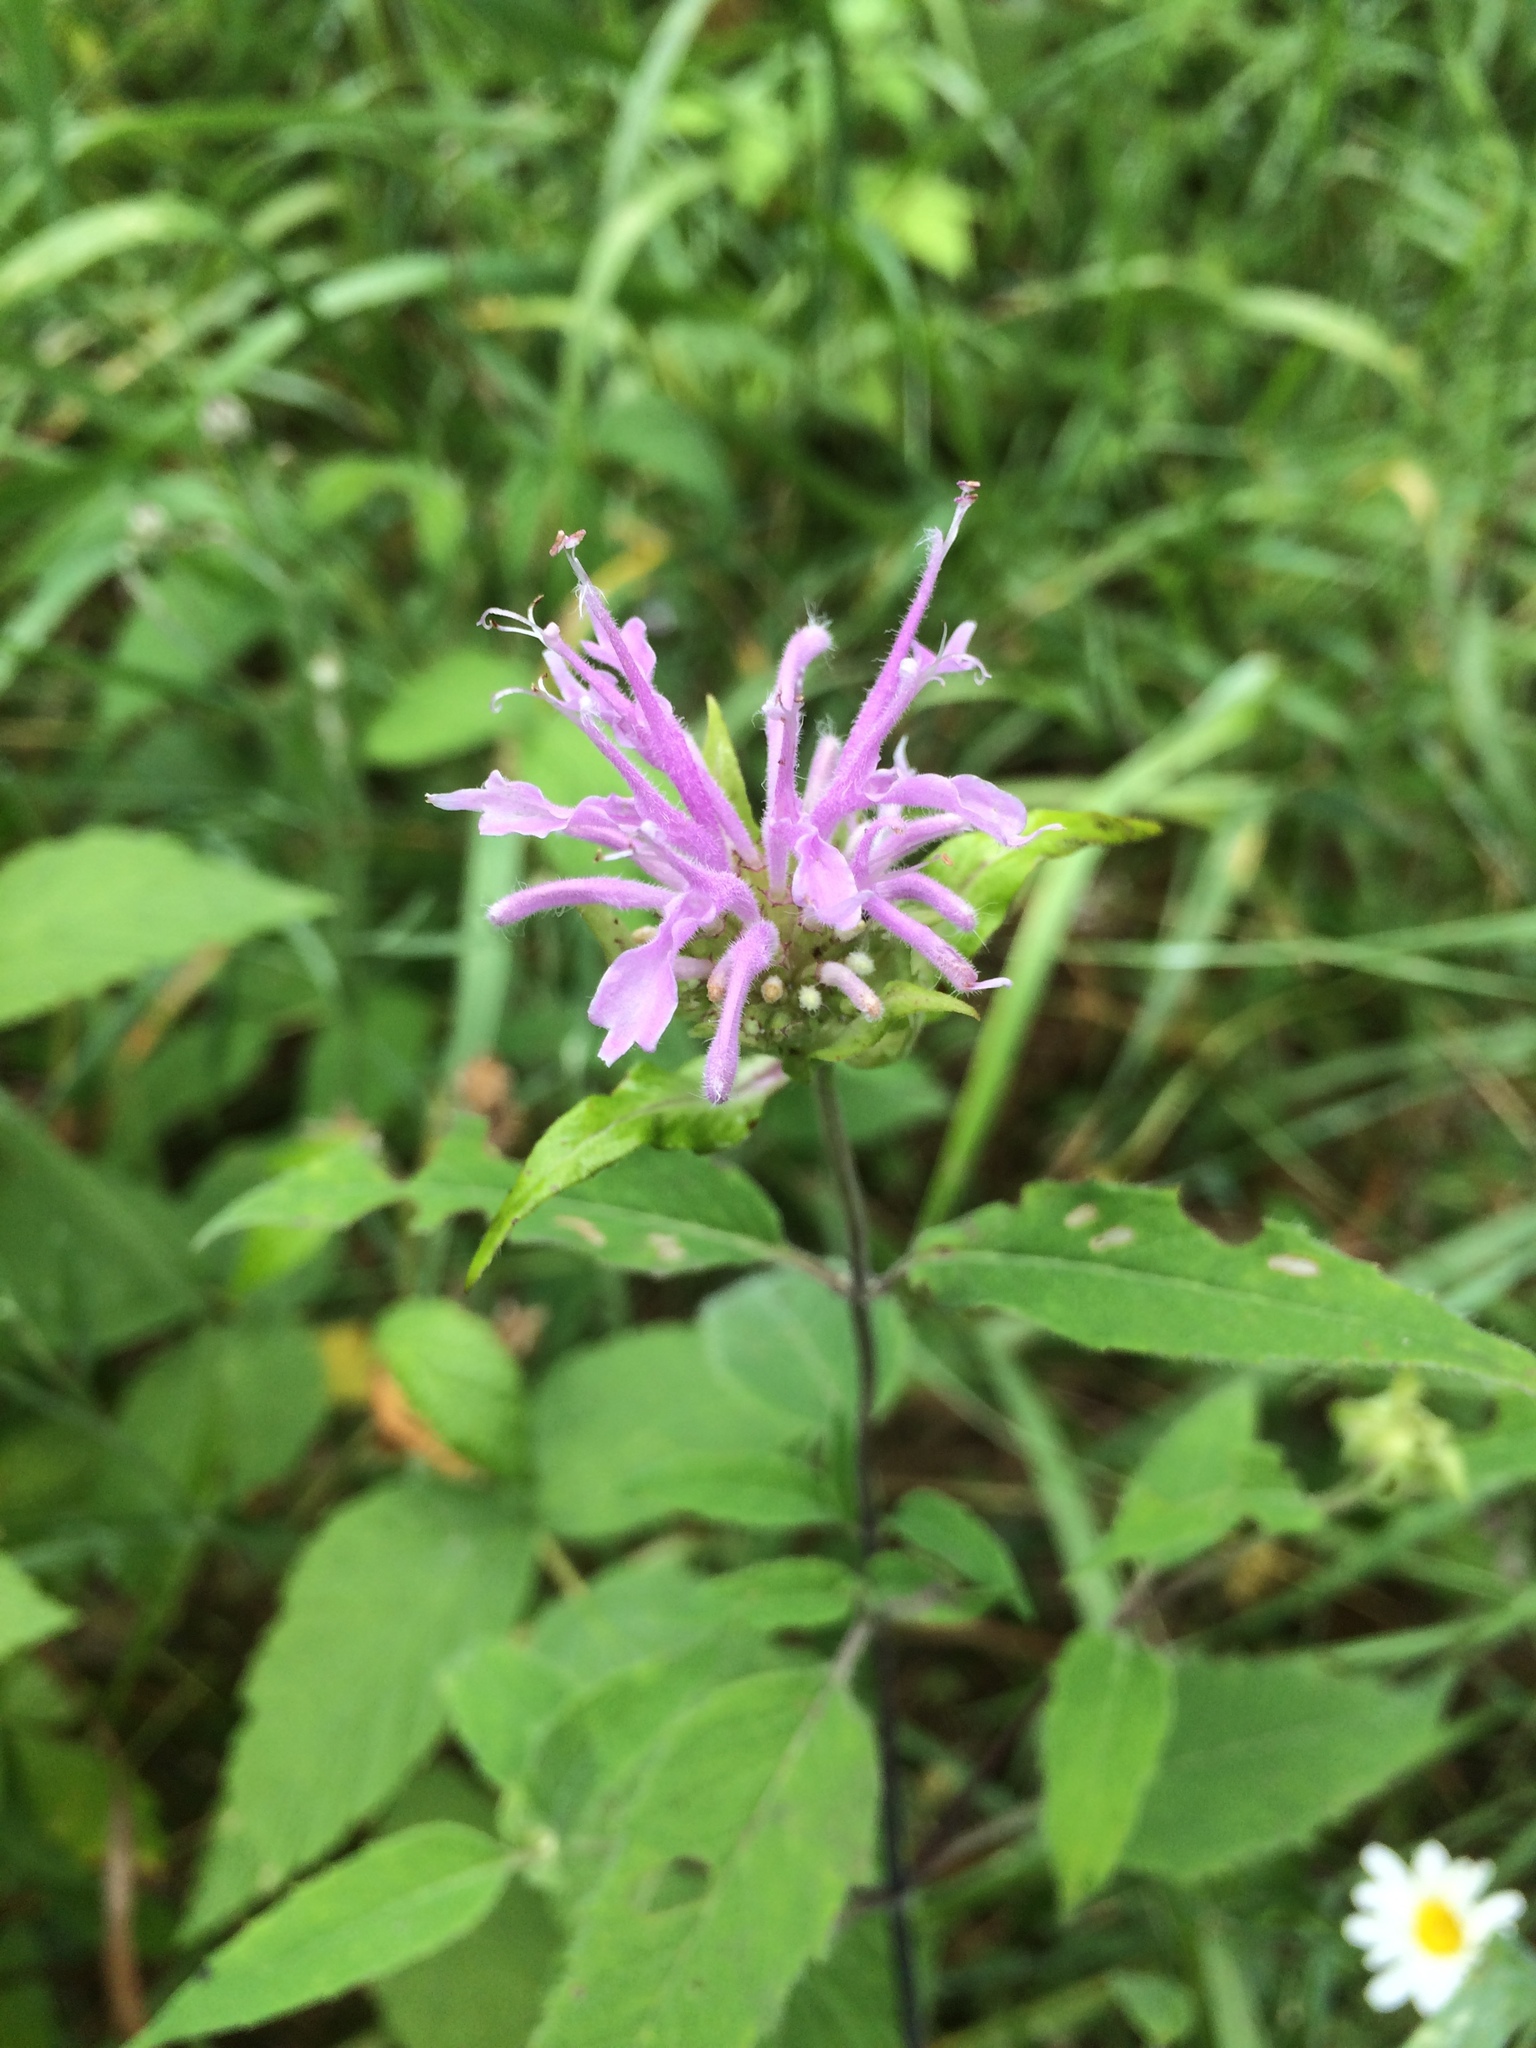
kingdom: Plantae
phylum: Tracheophyta
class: Magnoliopsida
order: Lamiales
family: Lamiaceae
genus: Monarda
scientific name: Monarda fistulosa
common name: Purple beebalm
